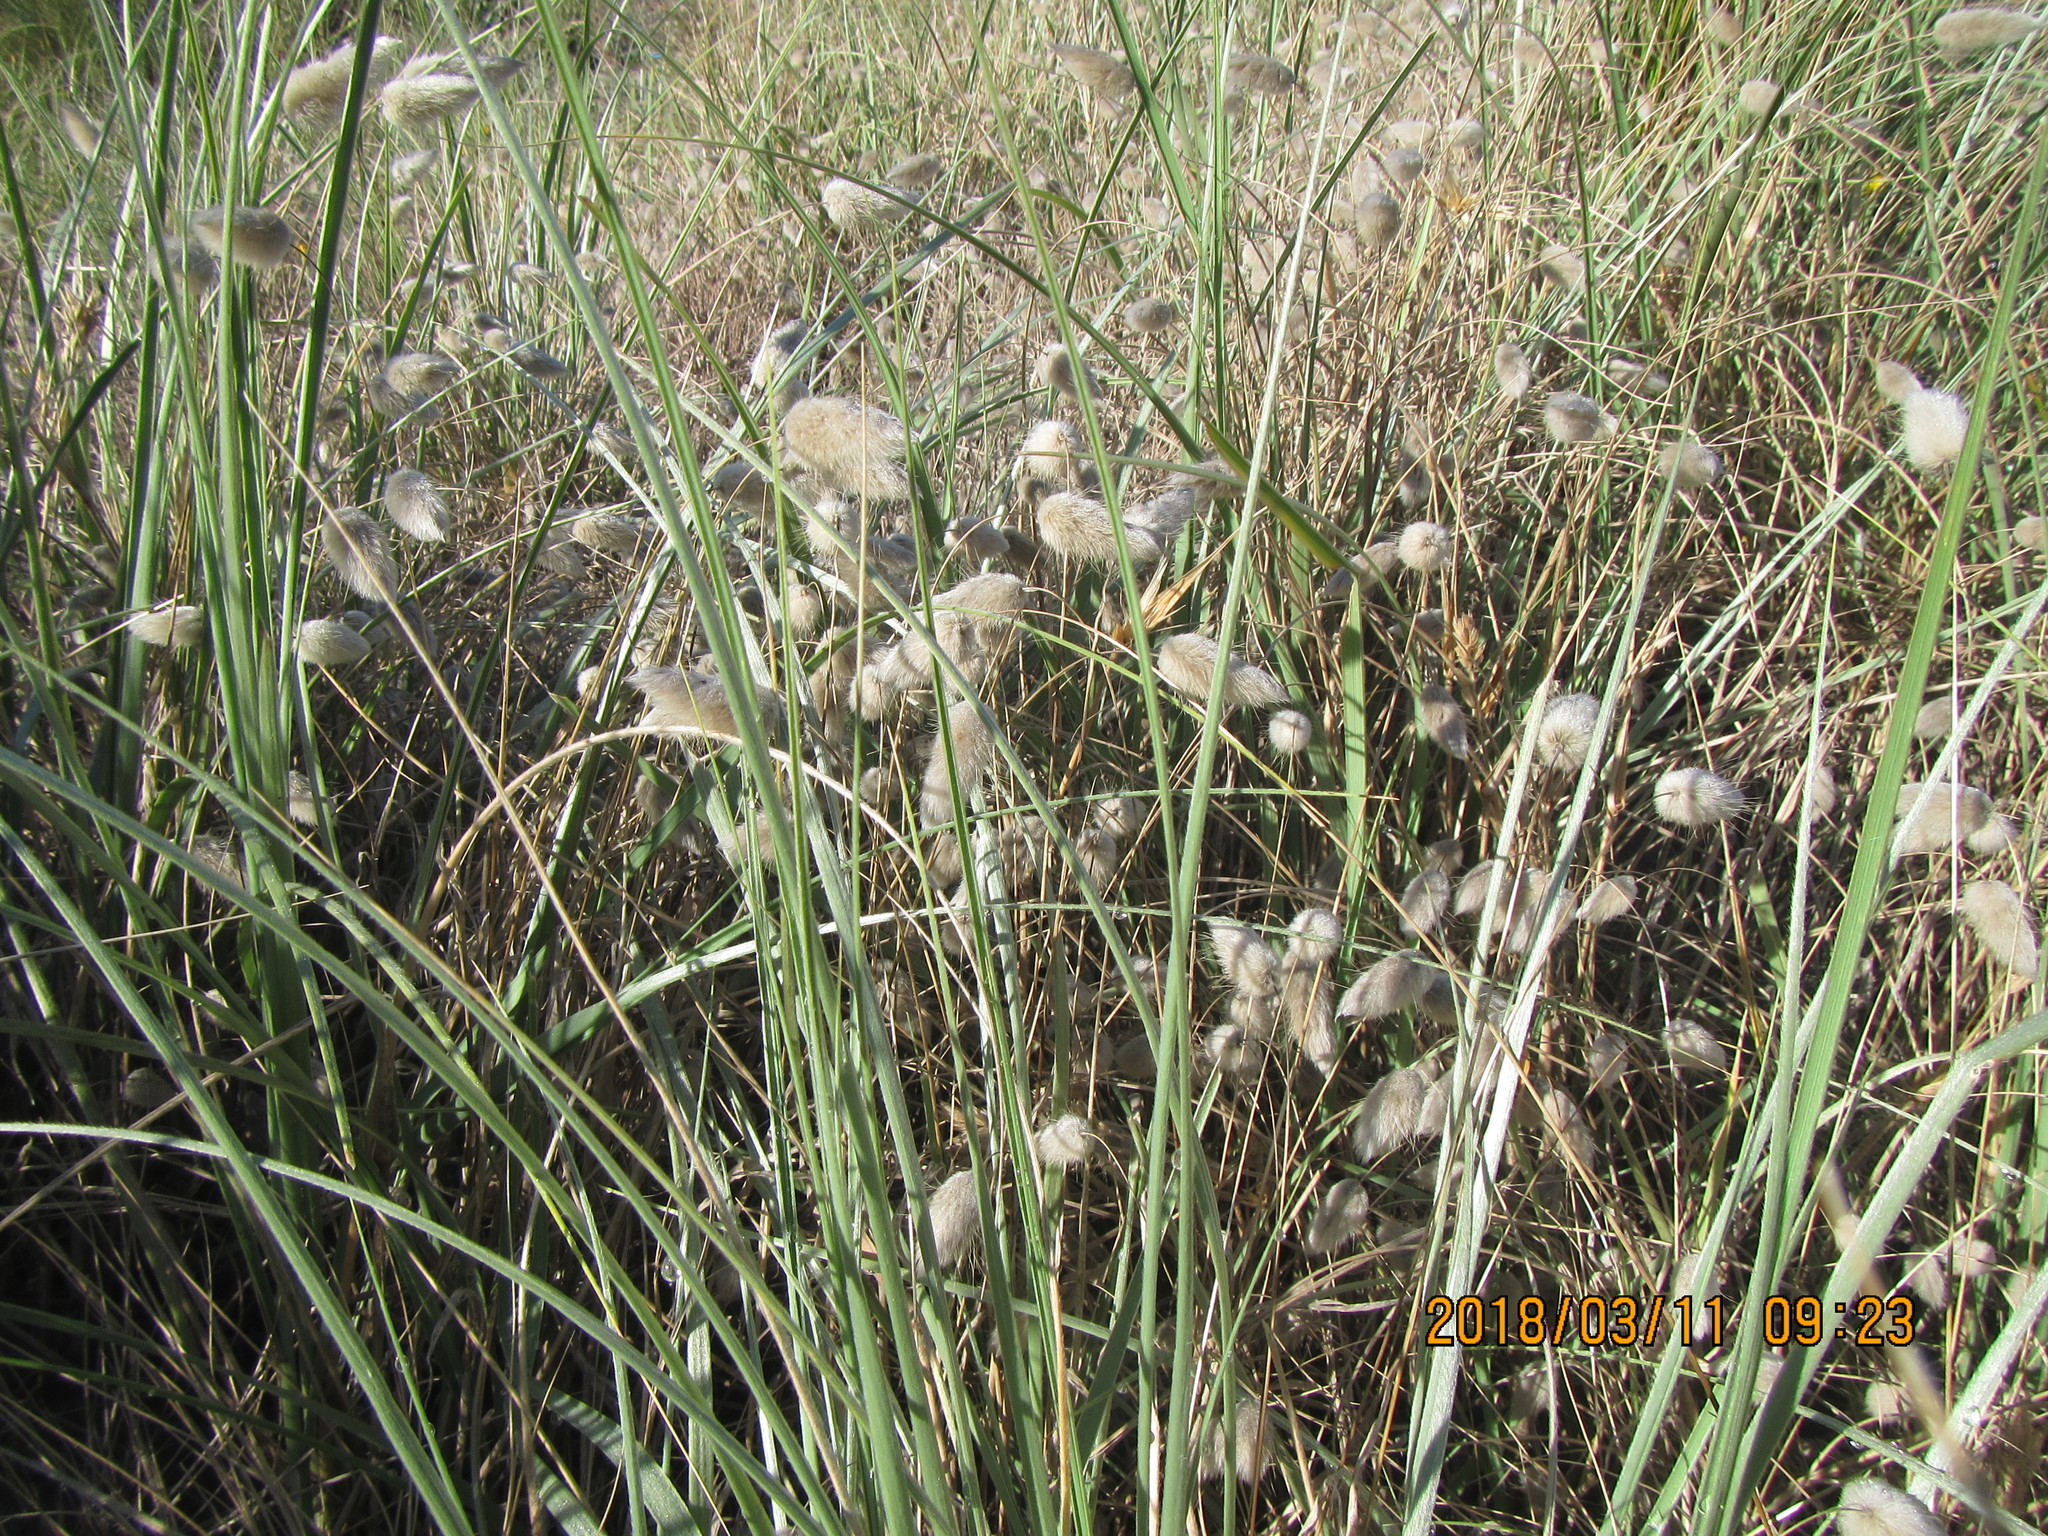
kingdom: Plantae
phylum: Tracheophyta
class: Liliopsida
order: Poales
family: Poaceae
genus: Lagurus
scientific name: Lagurus ovatus
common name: Hare's-tail
